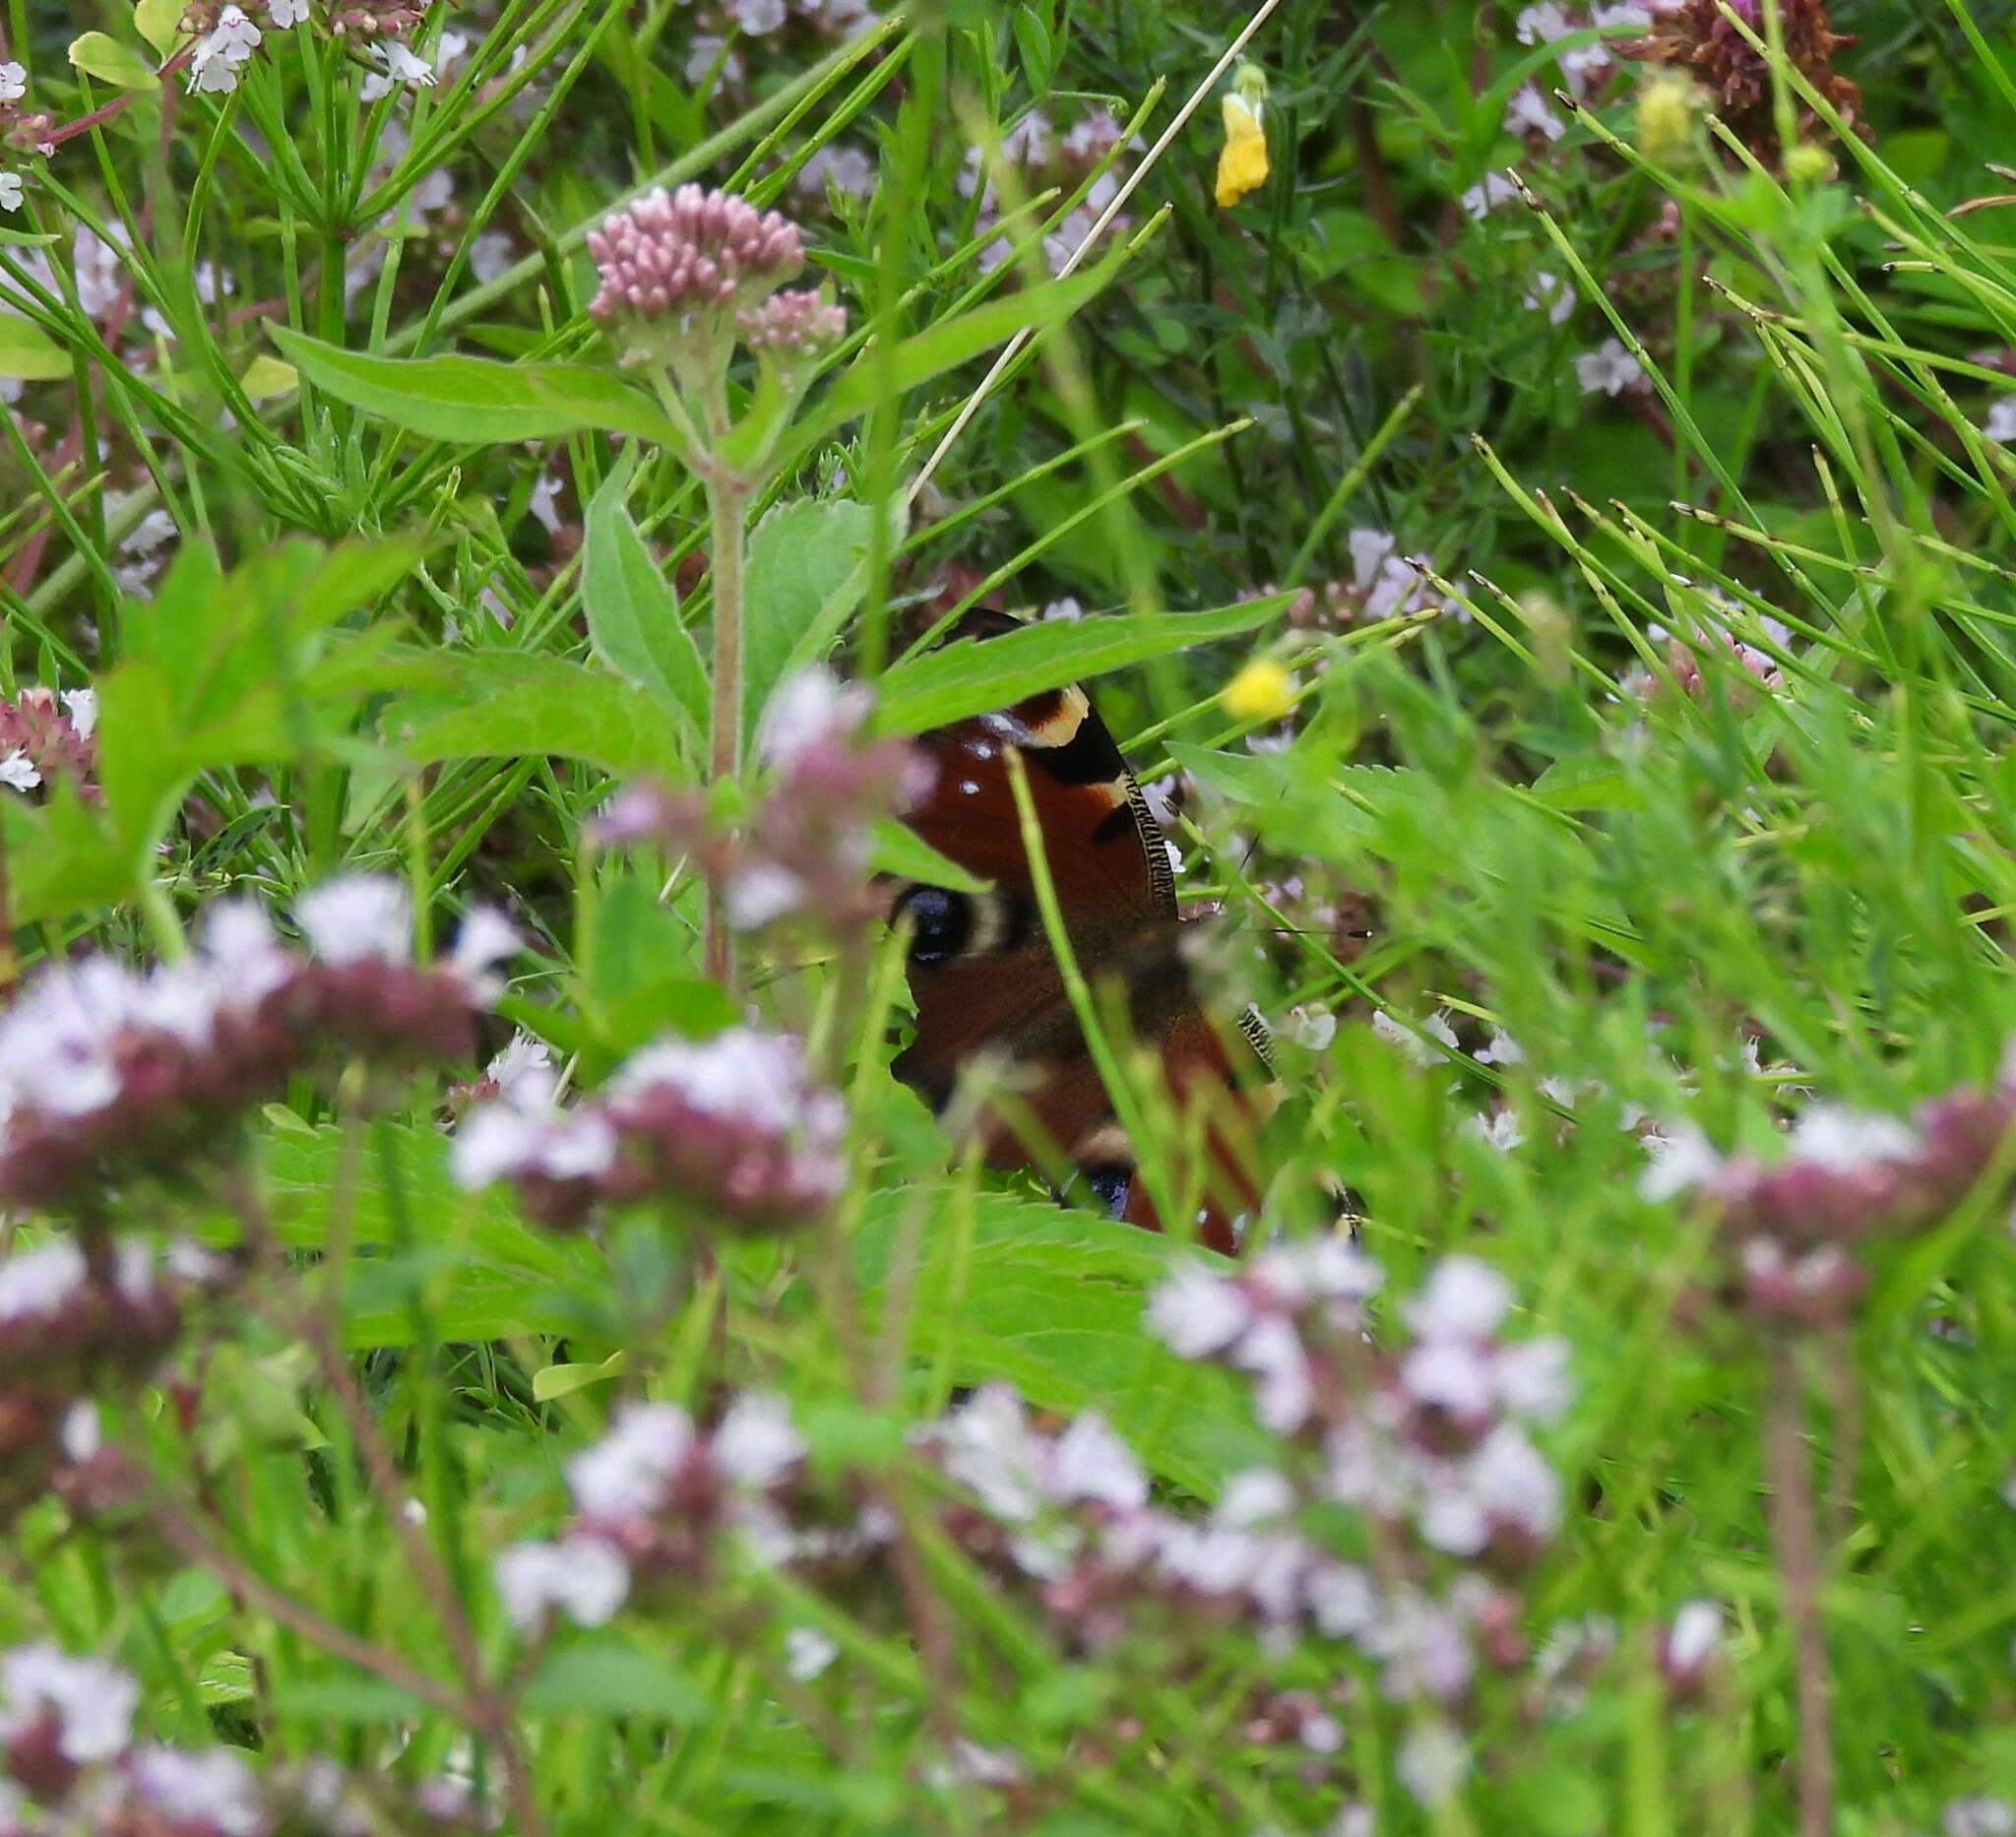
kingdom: Animalia
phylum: Arthropoda
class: Insecta
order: Lepidoptera
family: Nymphalidae
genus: Aglais
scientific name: Aglais io
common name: Peacock
